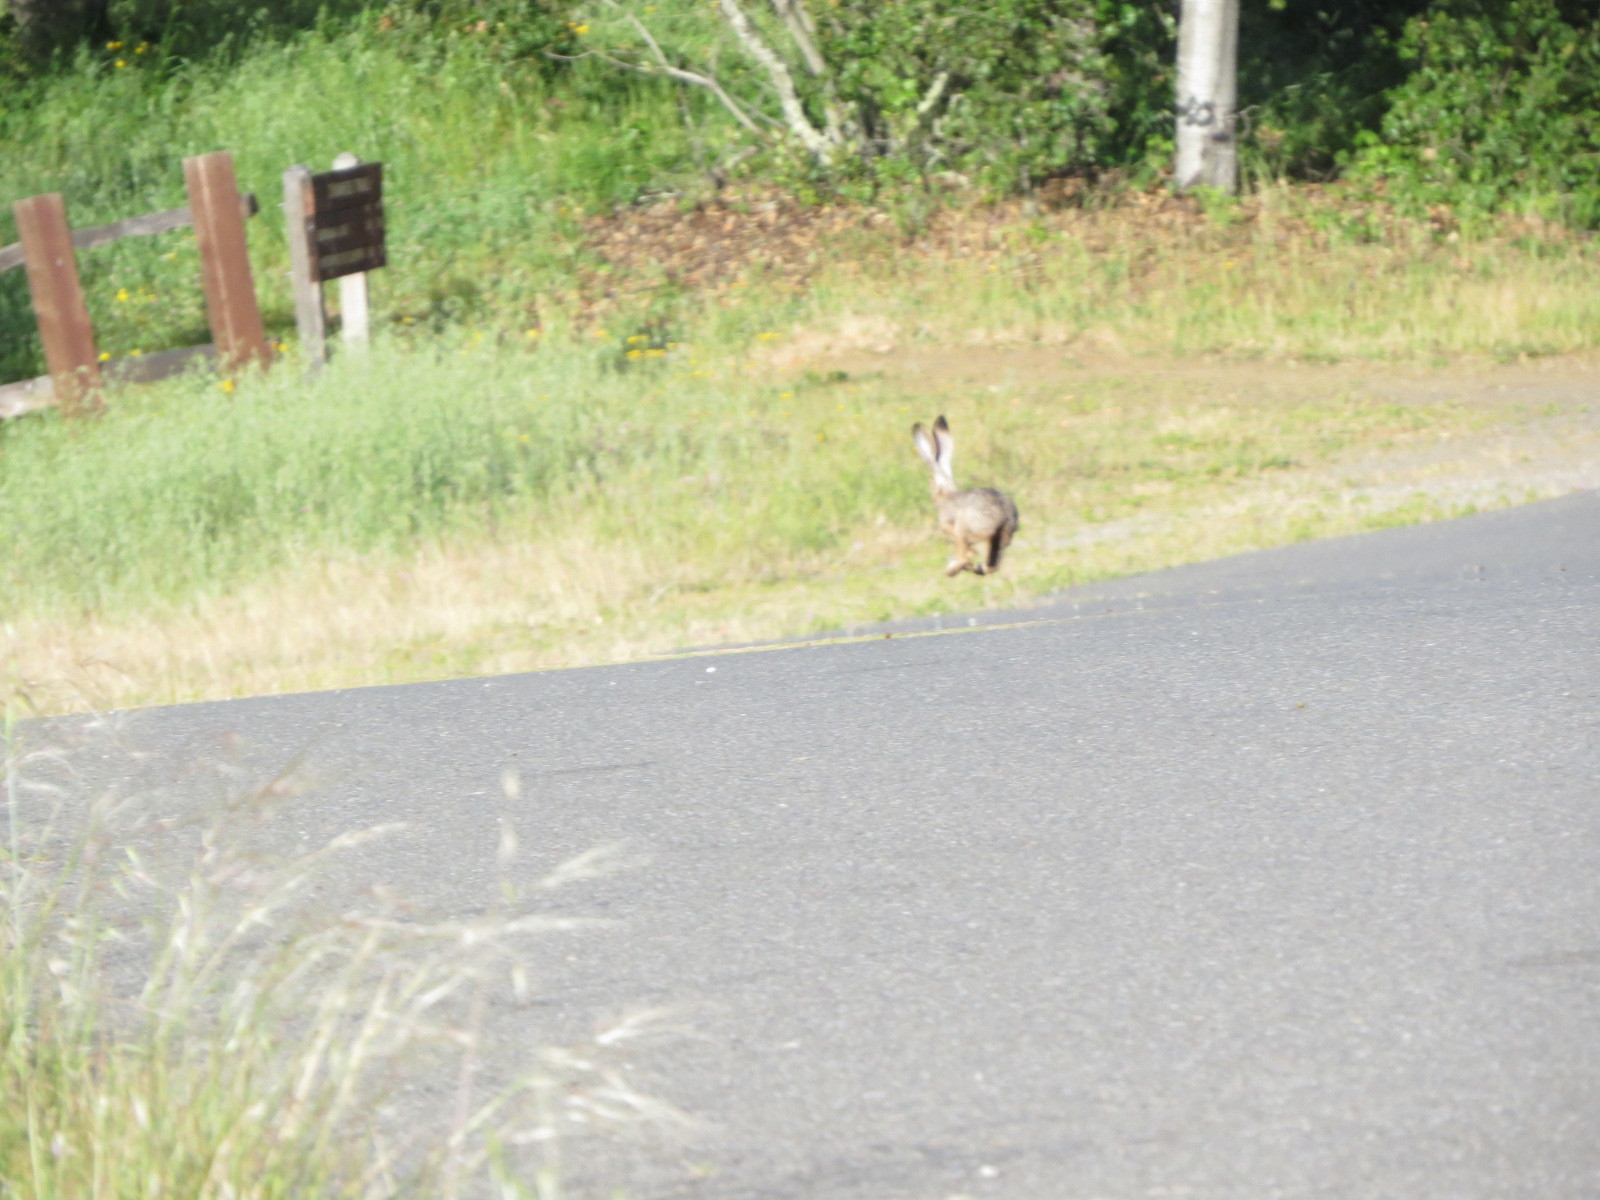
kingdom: Animalia
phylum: Chordata
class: Mammalia
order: Lagomorpha
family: Leporidae
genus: Lepus
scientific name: Lepus californicus
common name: Black-tailed jackrabbit
